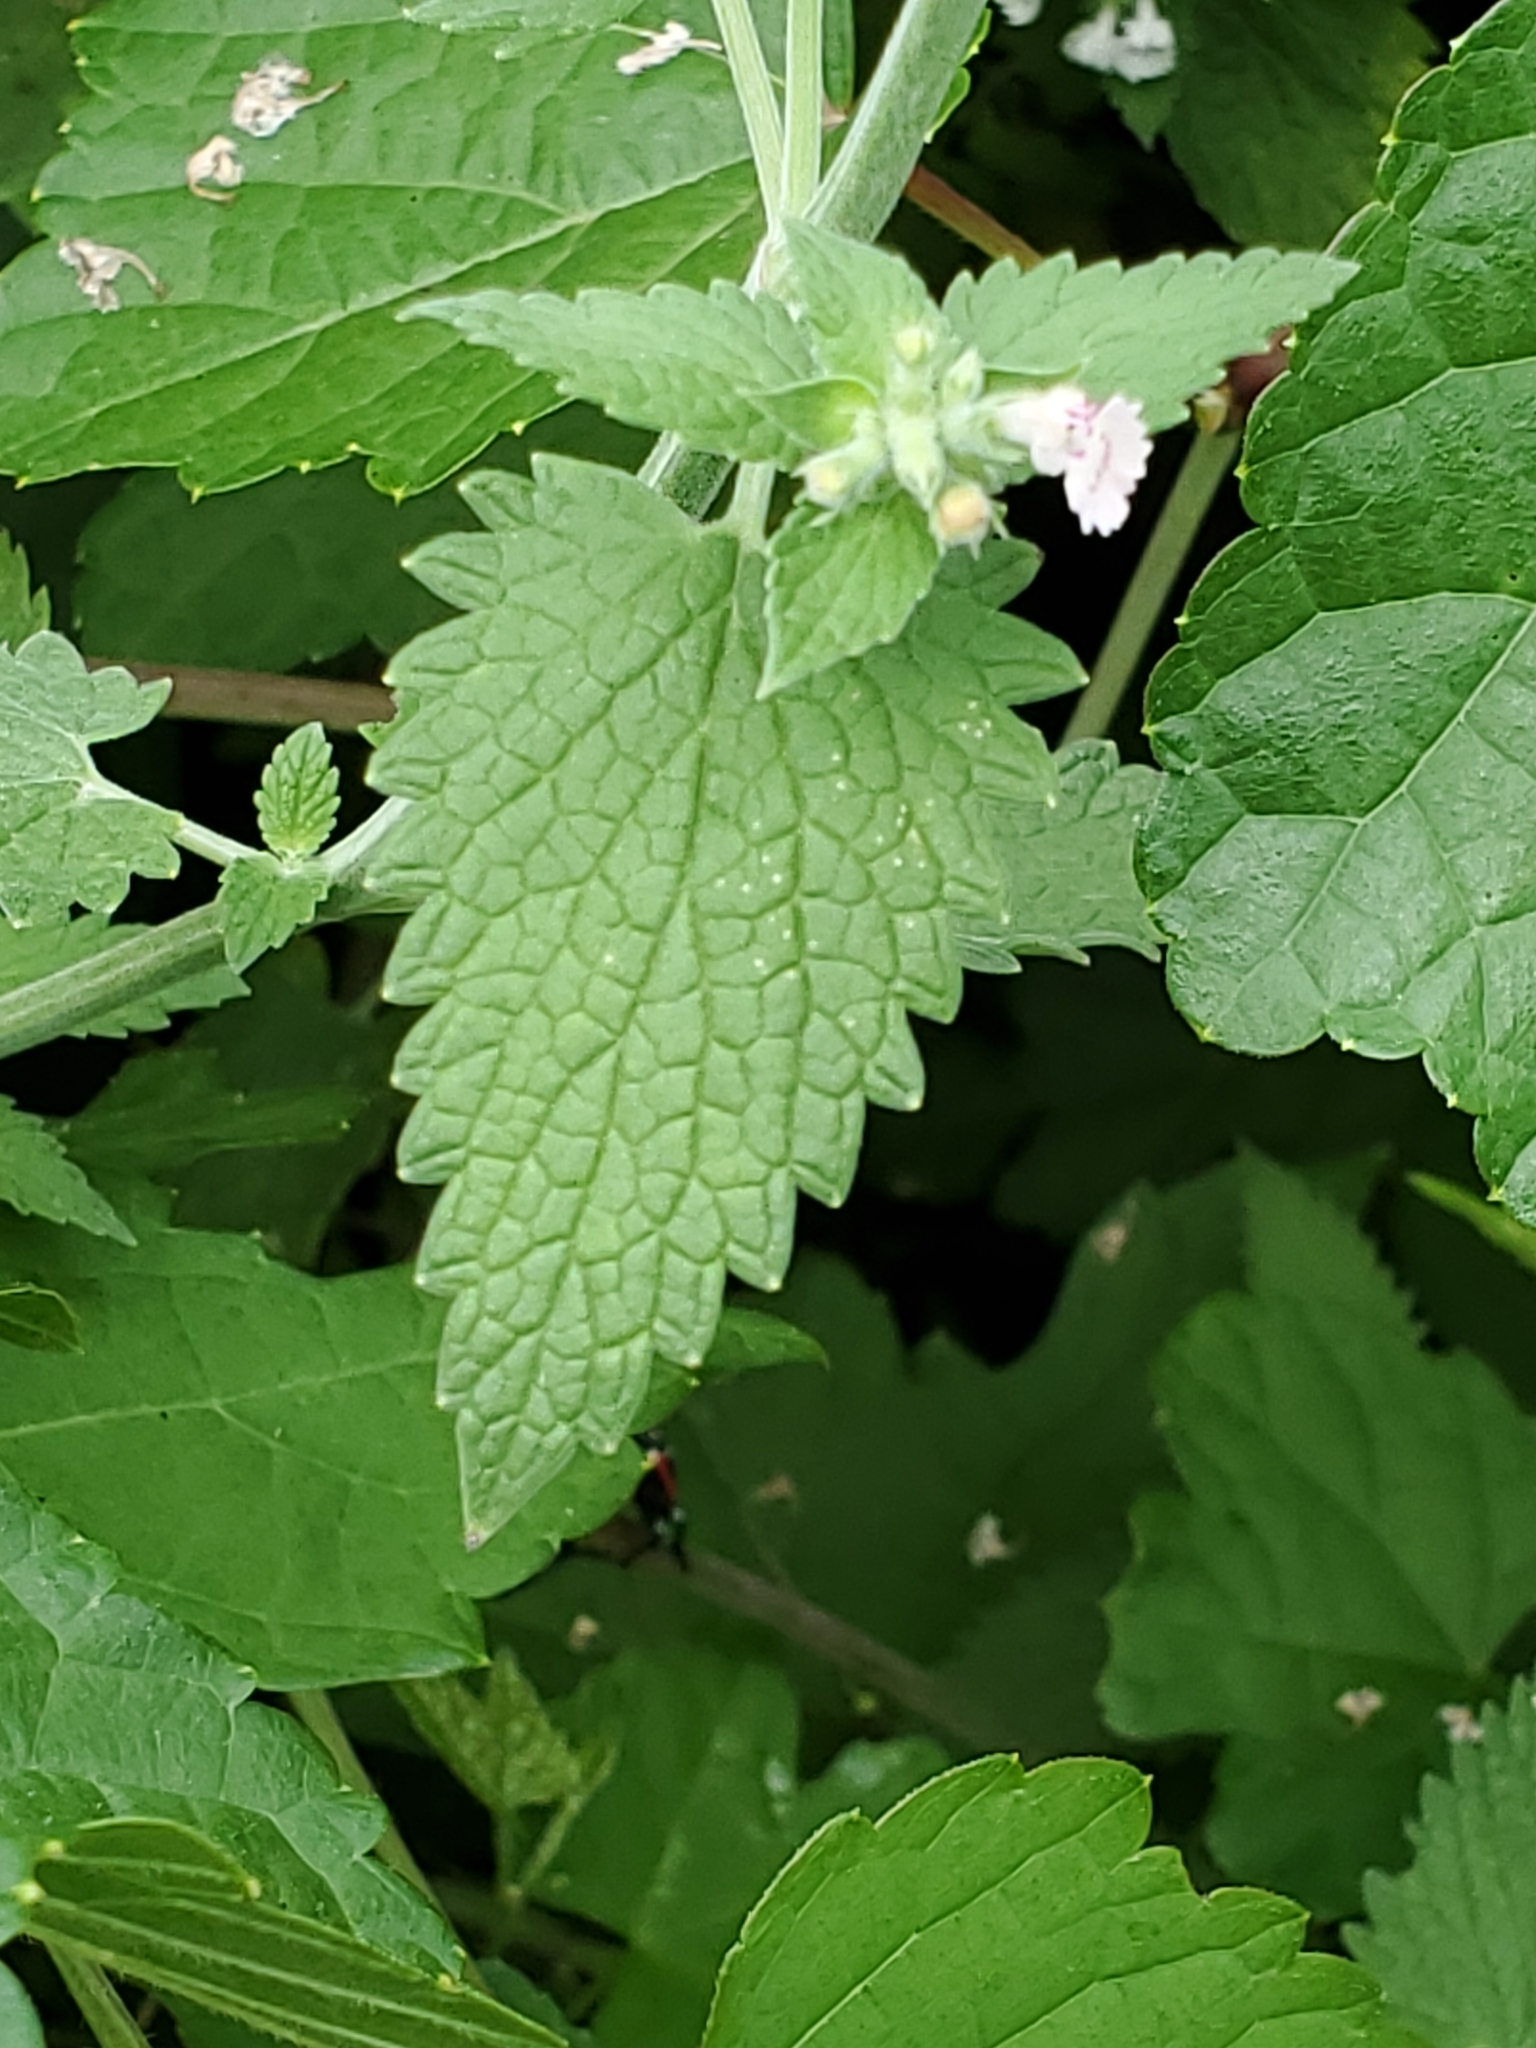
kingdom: Plantae
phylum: Tracheophyta
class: Magnoliopsida
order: Lamiales
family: Lamiaceae
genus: Nepeta
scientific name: Nepeta cataria
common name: Catnip
